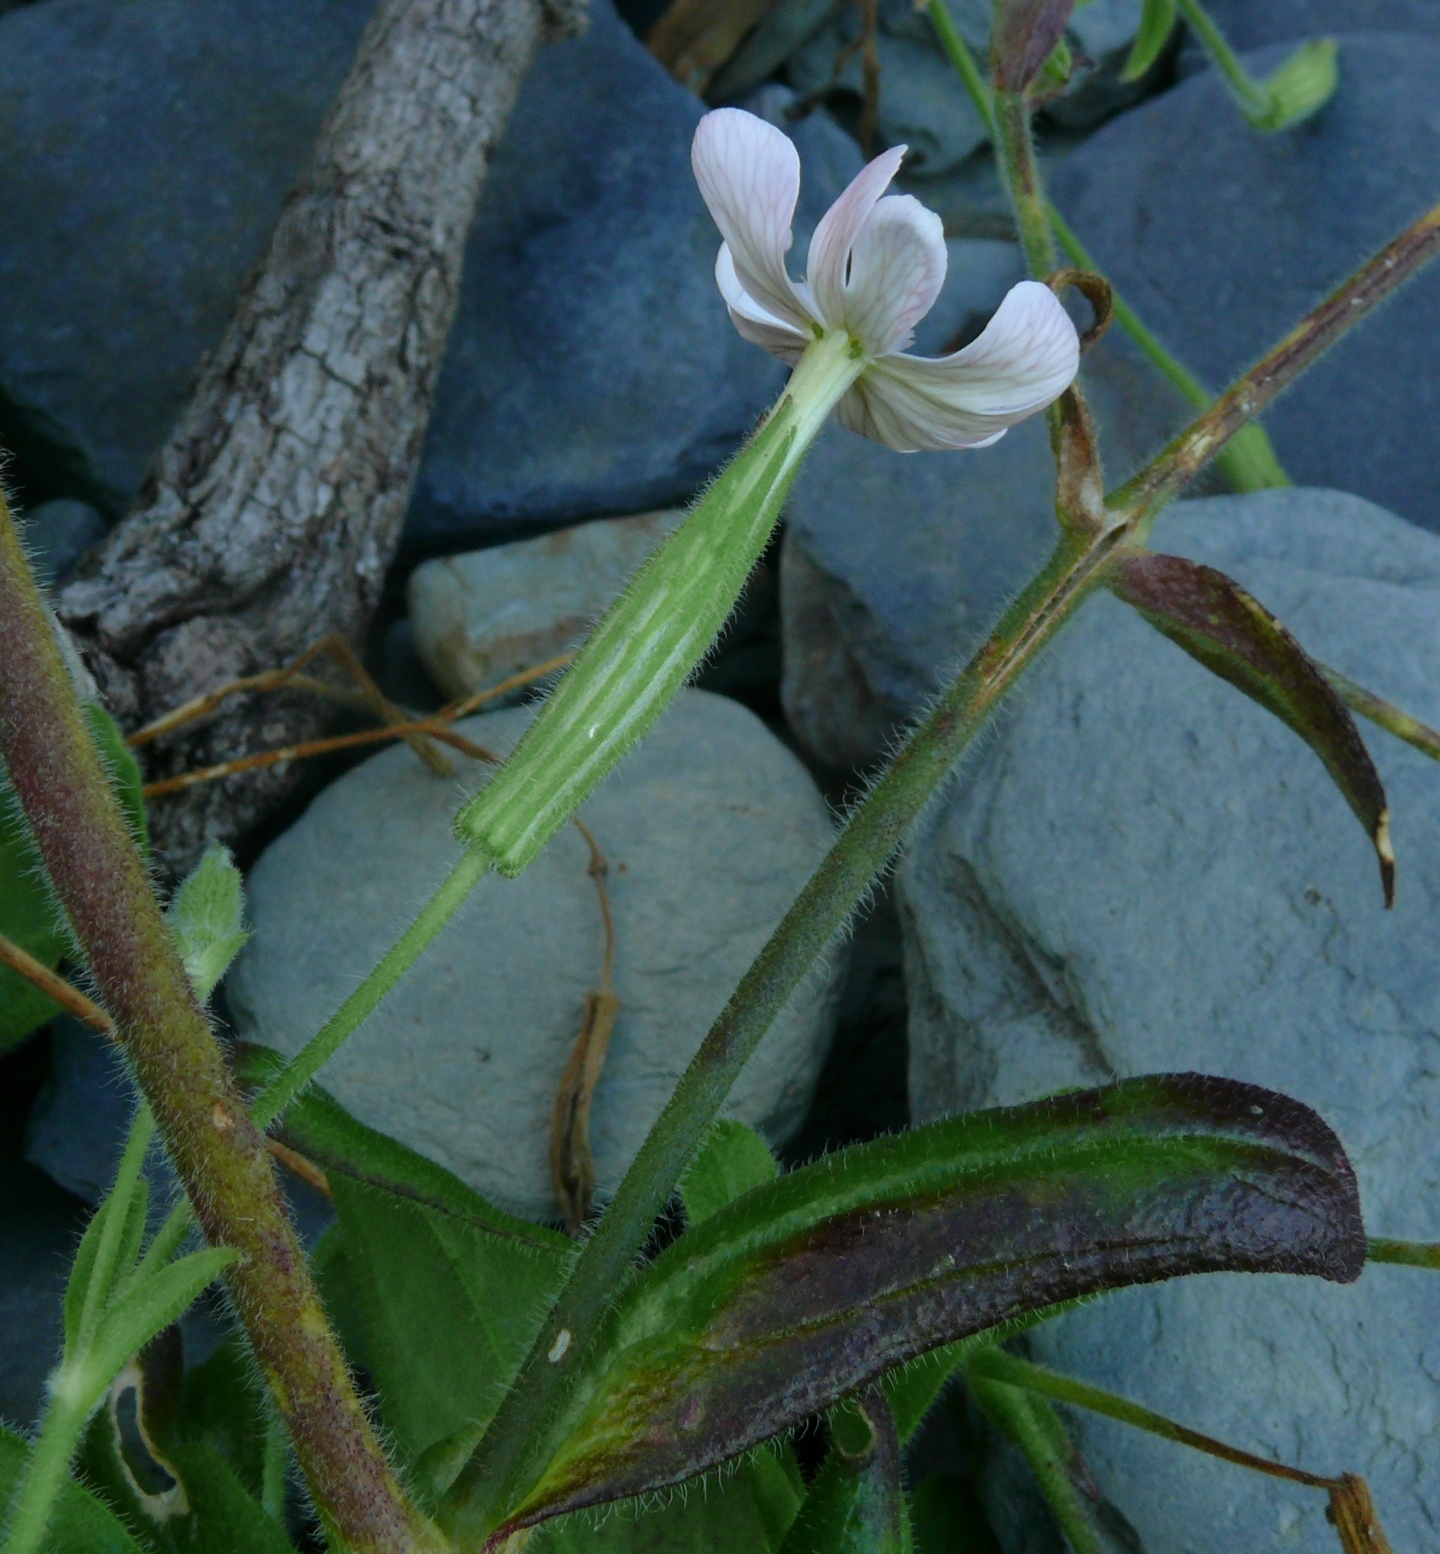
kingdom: Plantae
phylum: Tracheophyta
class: Magnoliopsida
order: Caryophyllales
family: Caryophyllaceae
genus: Silene
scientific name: Silene undulata
